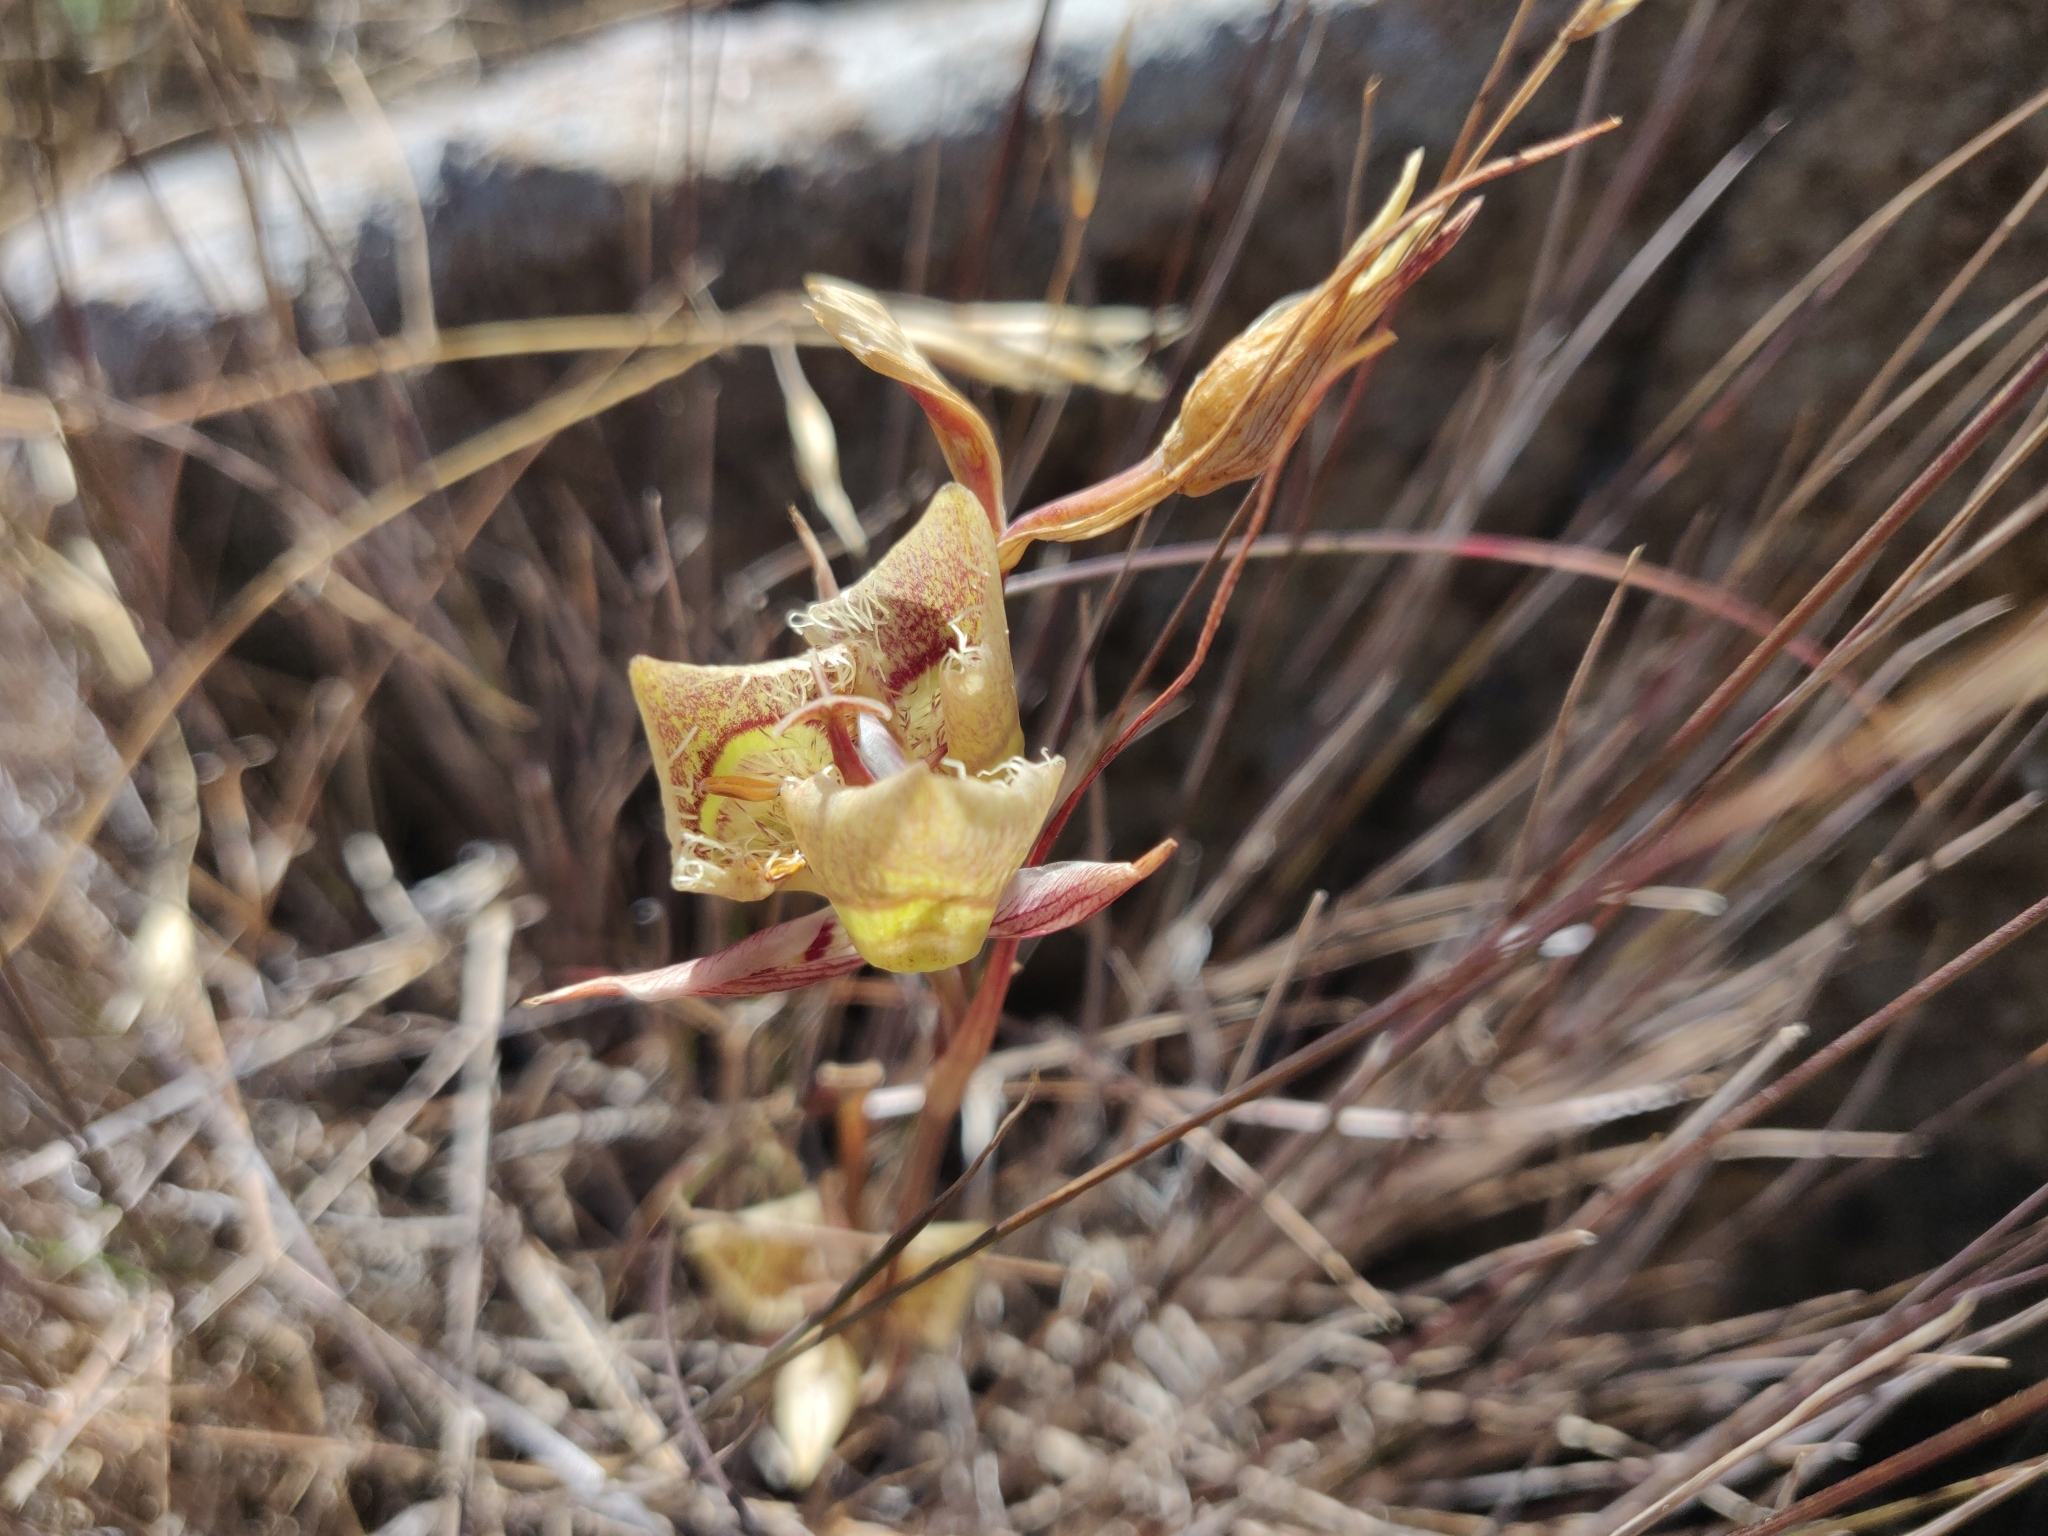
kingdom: Plantae
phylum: Tracheophyta
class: Liliopsida
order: Liliales
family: Liliaceae
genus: Calochortus
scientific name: Calochortus tiburonensis
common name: Tiburon mariposa-lily
